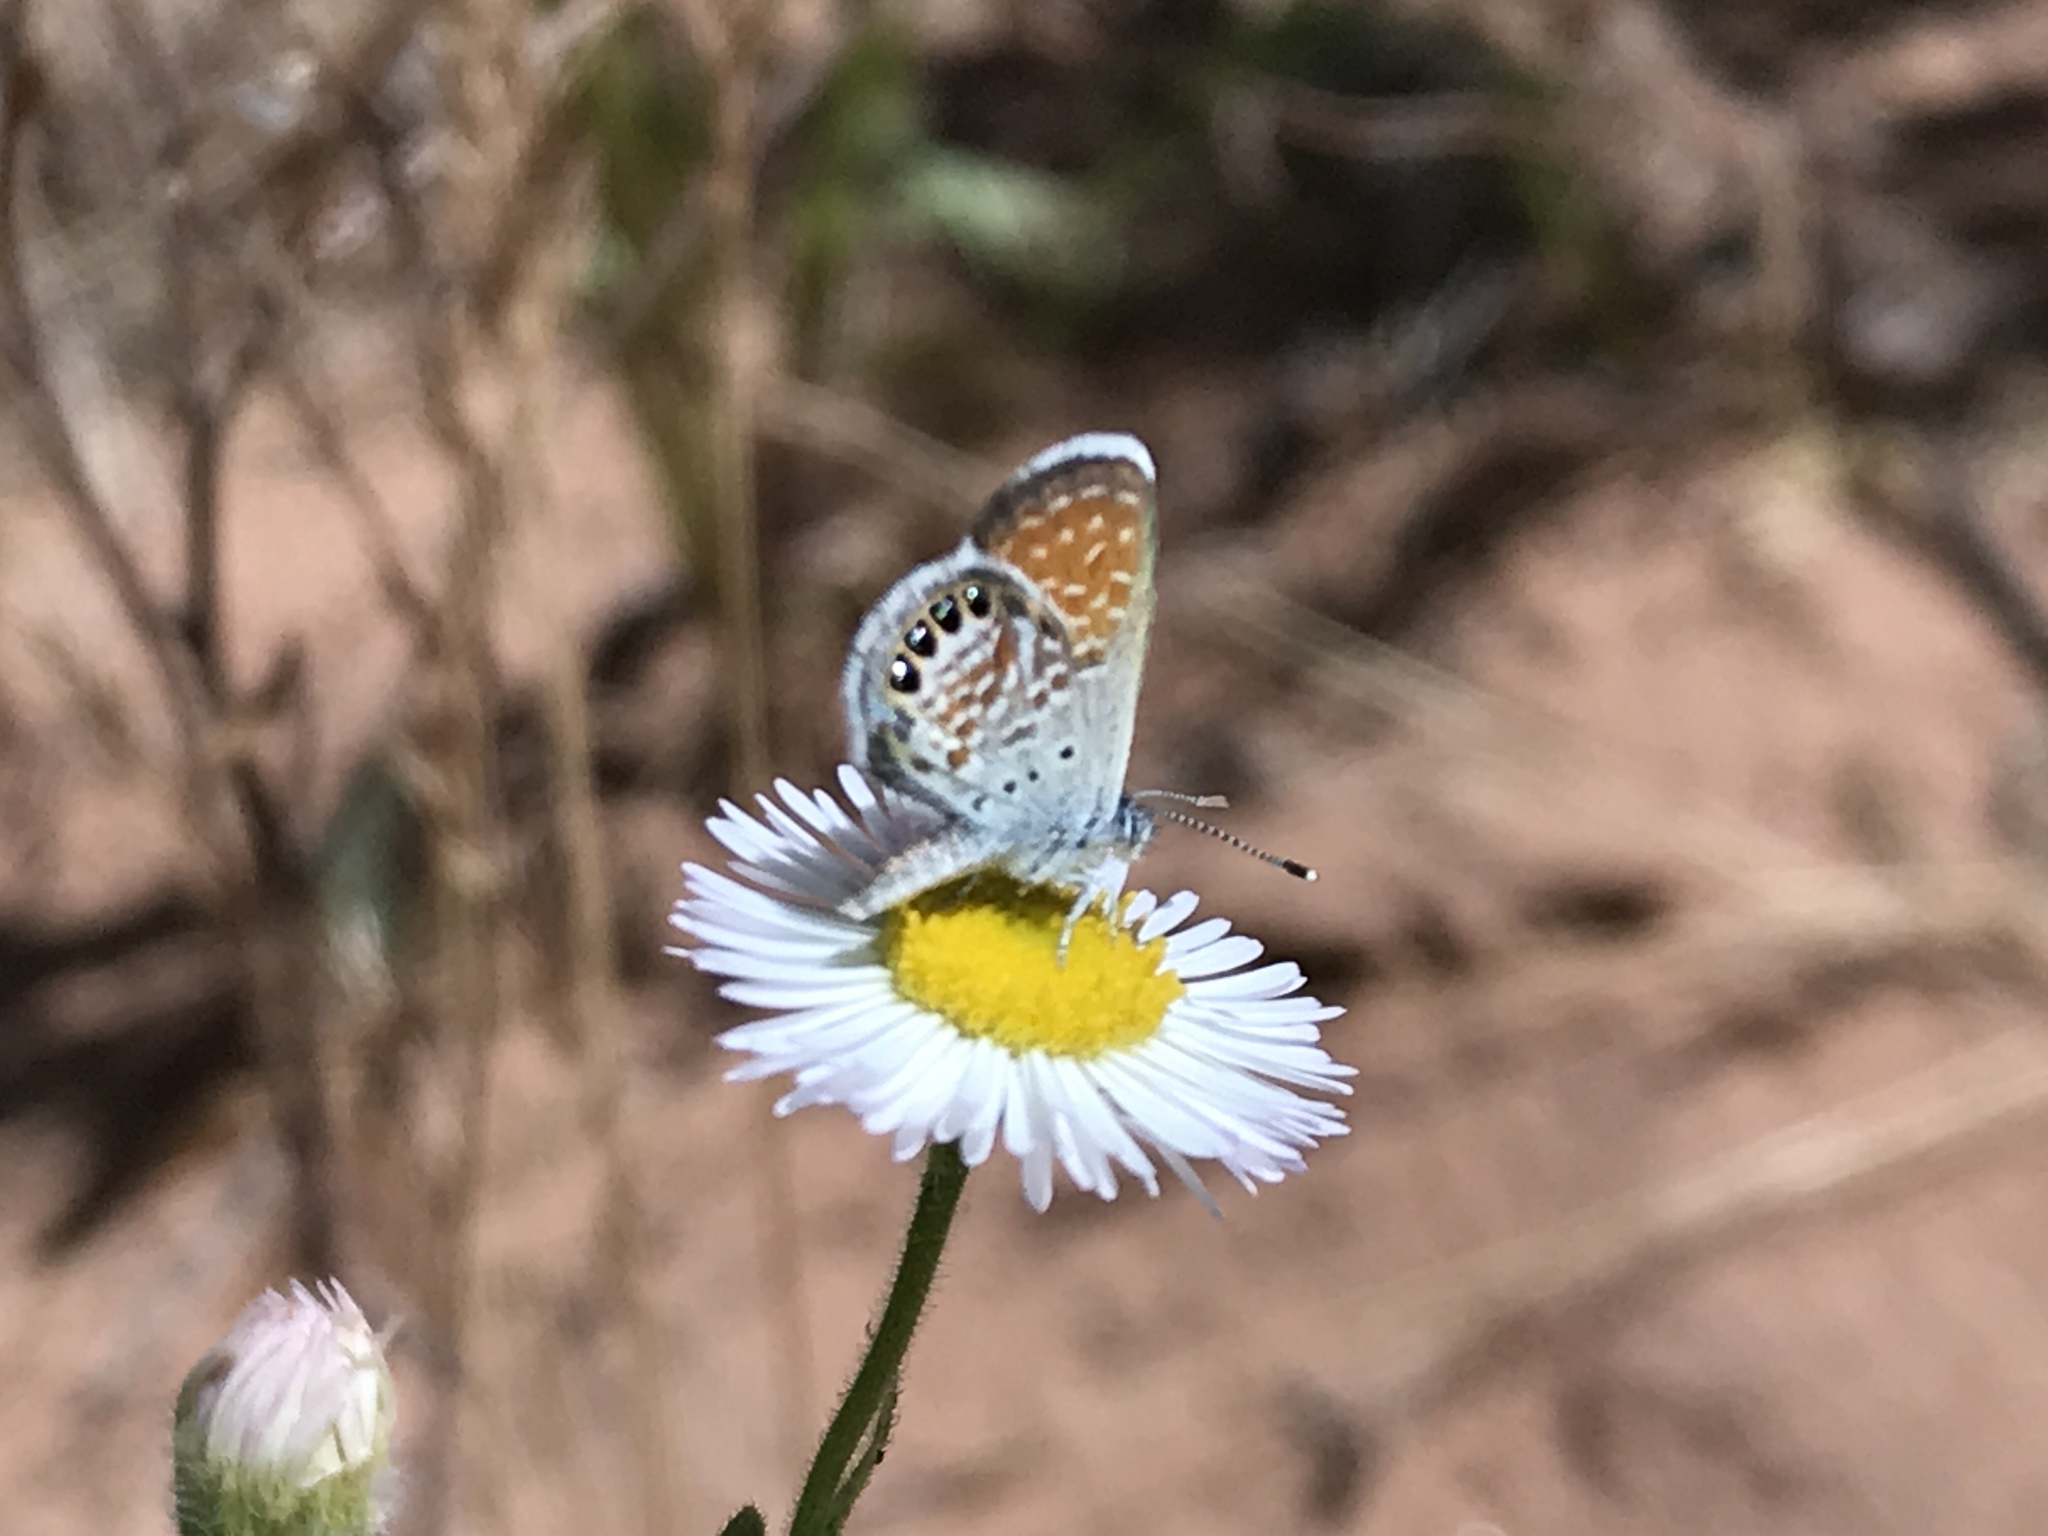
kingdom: Animalia
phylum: Arthropoda
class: Insecta
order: Lepidoptera
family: Lycaenidae
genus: Brephidium
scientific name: Brephidium exilis
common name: Pygmy blue
